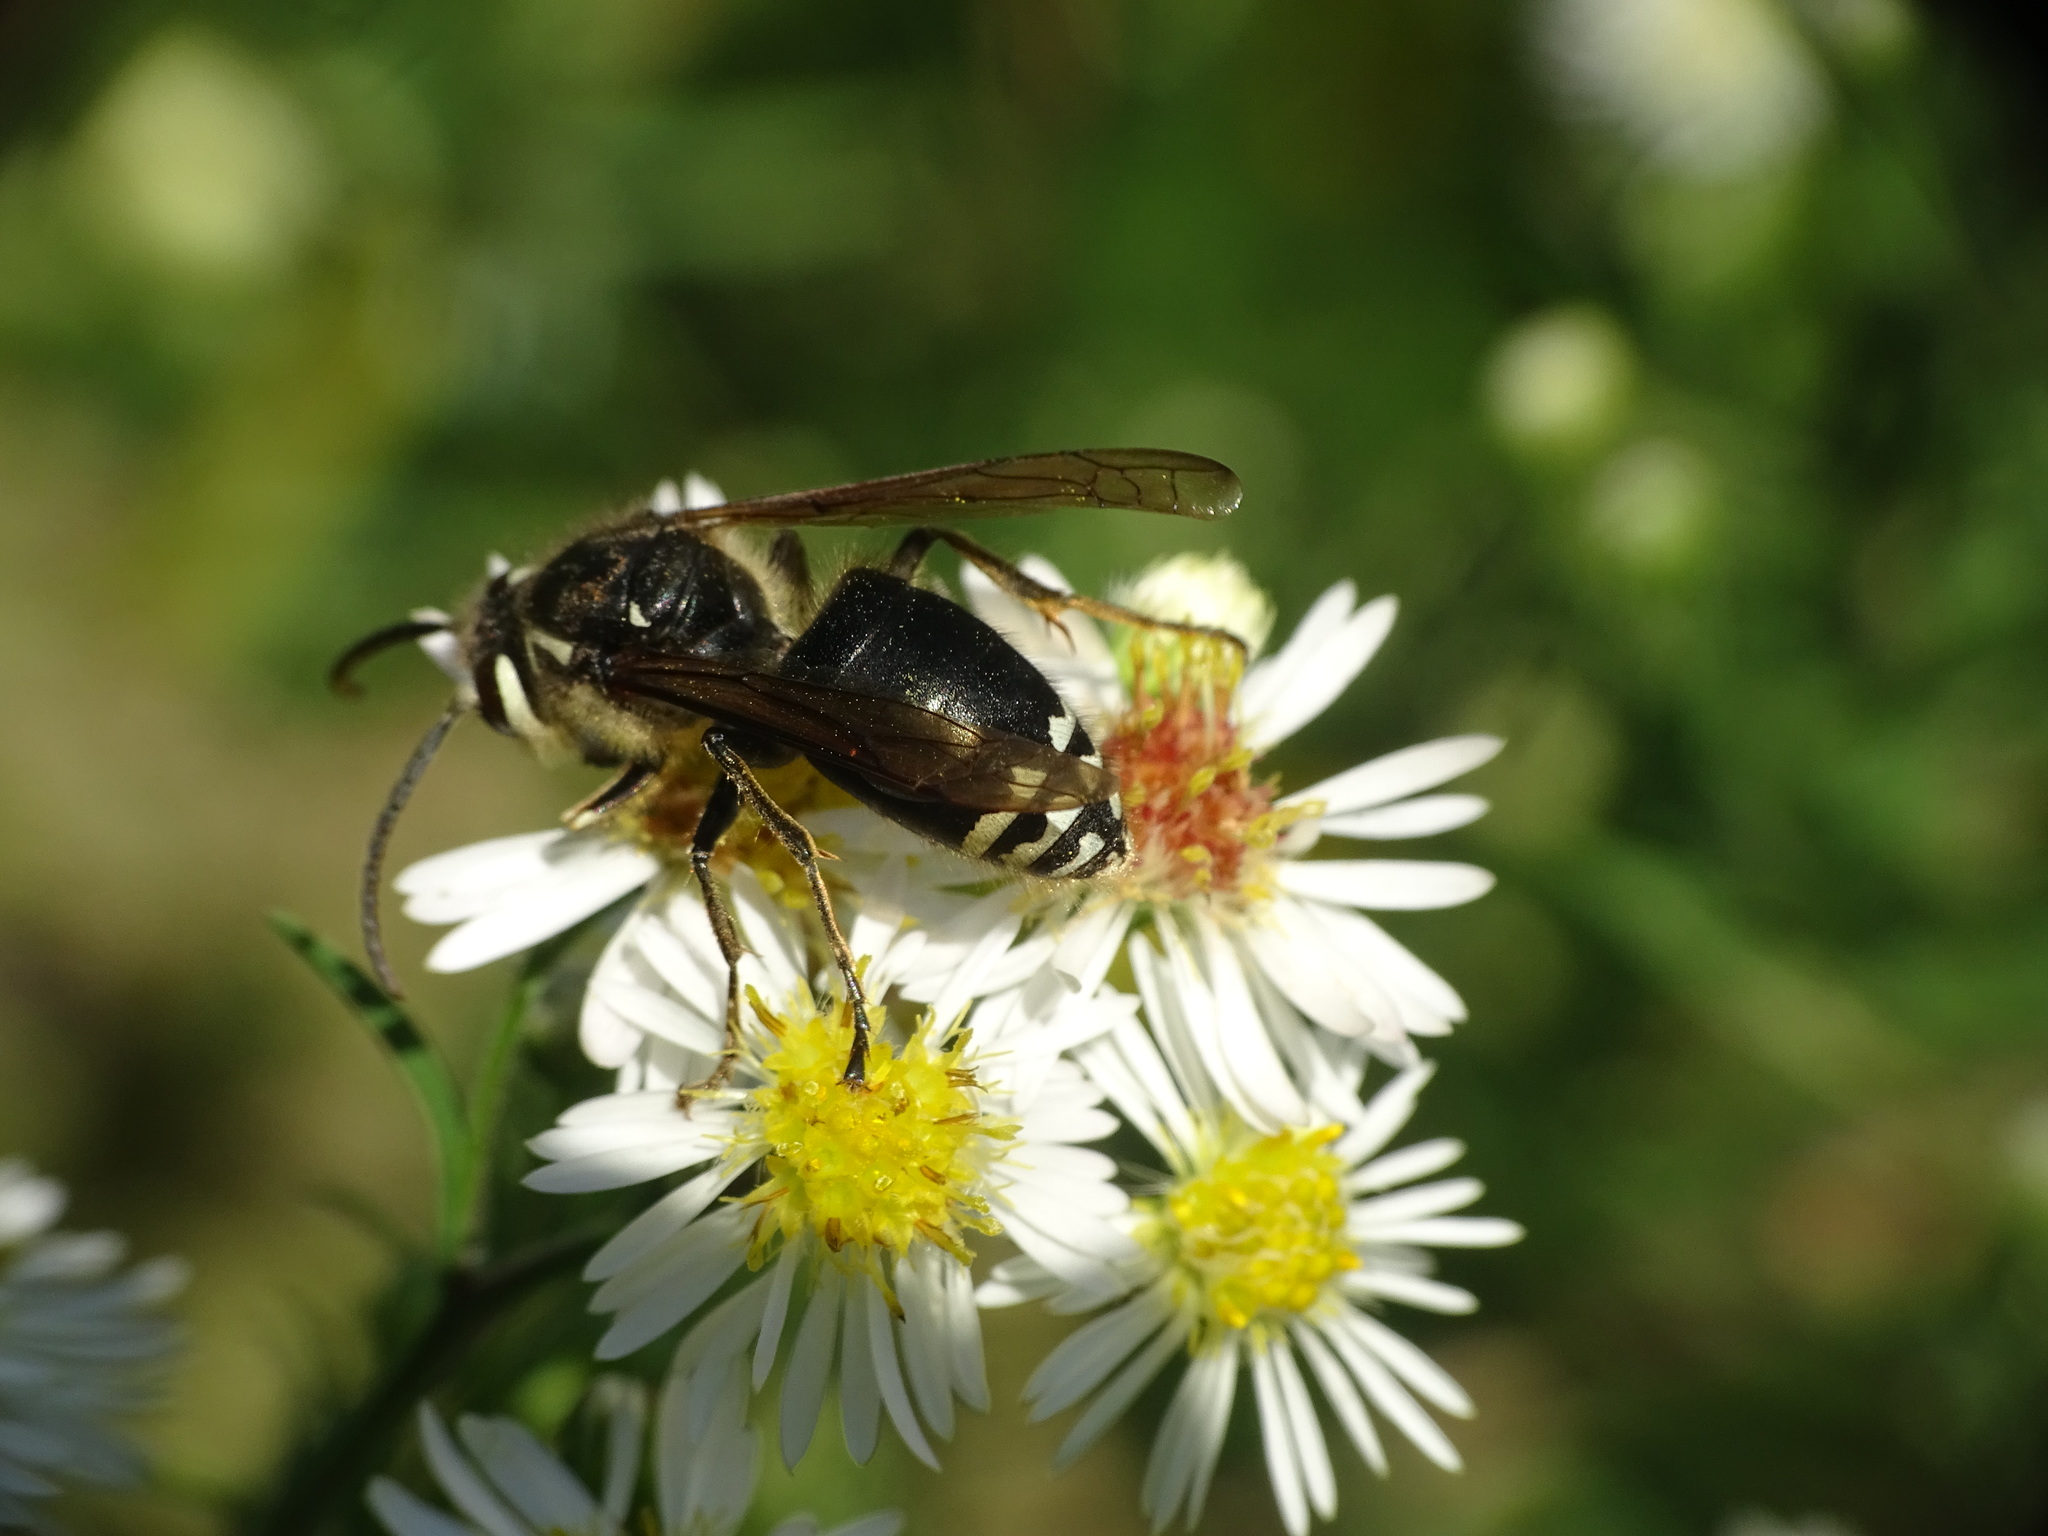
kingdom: Animalia
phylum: Arthropoda
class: Insecta
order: Hymenoptera
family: Vespidae
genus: Dolichovespula
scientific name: Dolichovespula maculata
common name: Bald-faced hornet
